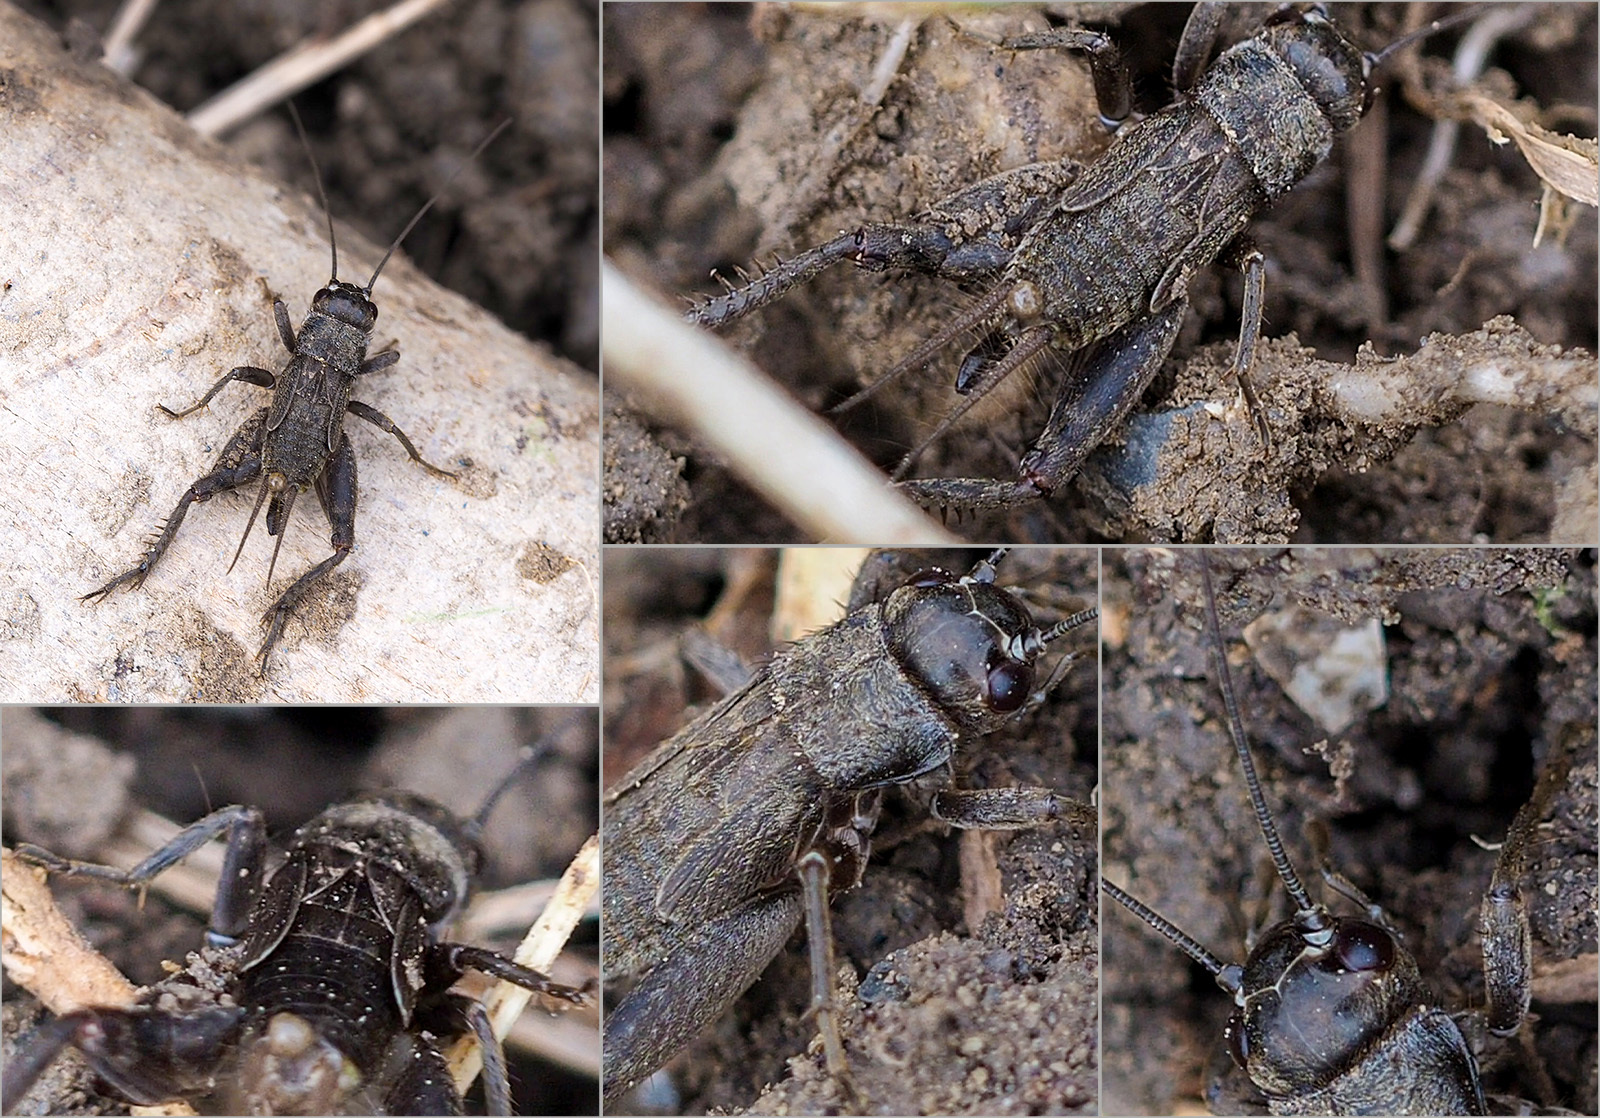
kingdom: Animalia
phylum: Arthropoda
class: Insecta
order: Orthoptera
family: Gryllidae
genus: Eumodicogryllus
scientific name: Eumodicogryllus bordigalensis
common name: Bordeaux cricket
